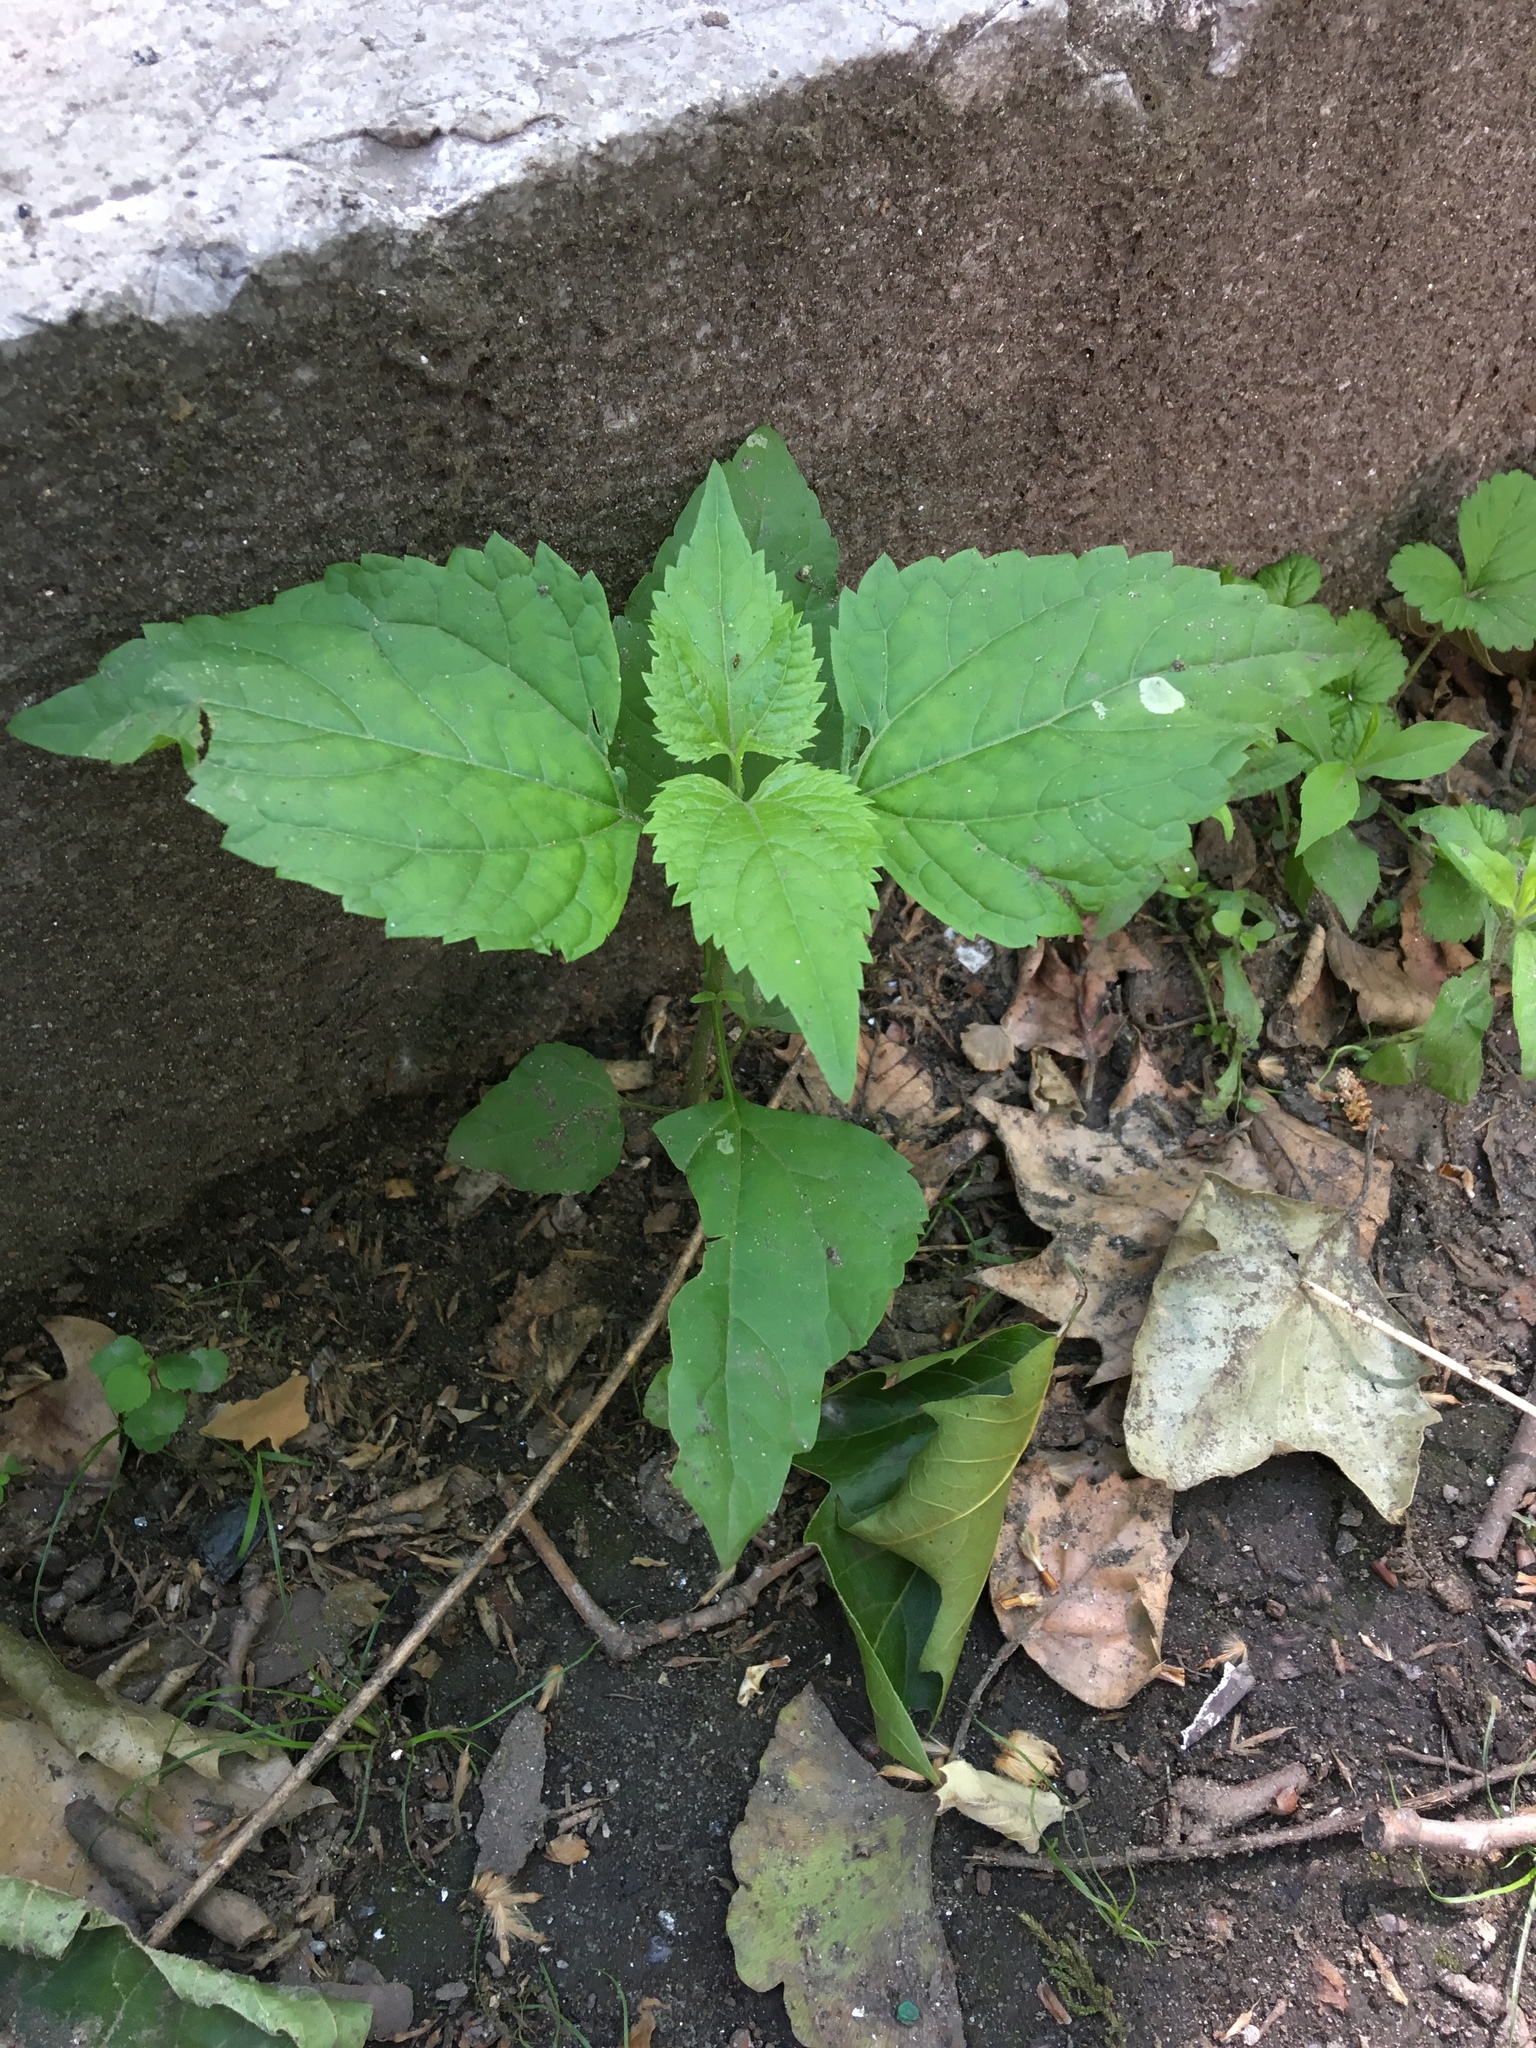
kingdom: Plantae
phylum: Tracheophyta
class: Magnoliopsida
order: Asterales
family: Asteraceae
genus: Ageratina
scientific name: Ageratina altissima
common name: White snakeroot
